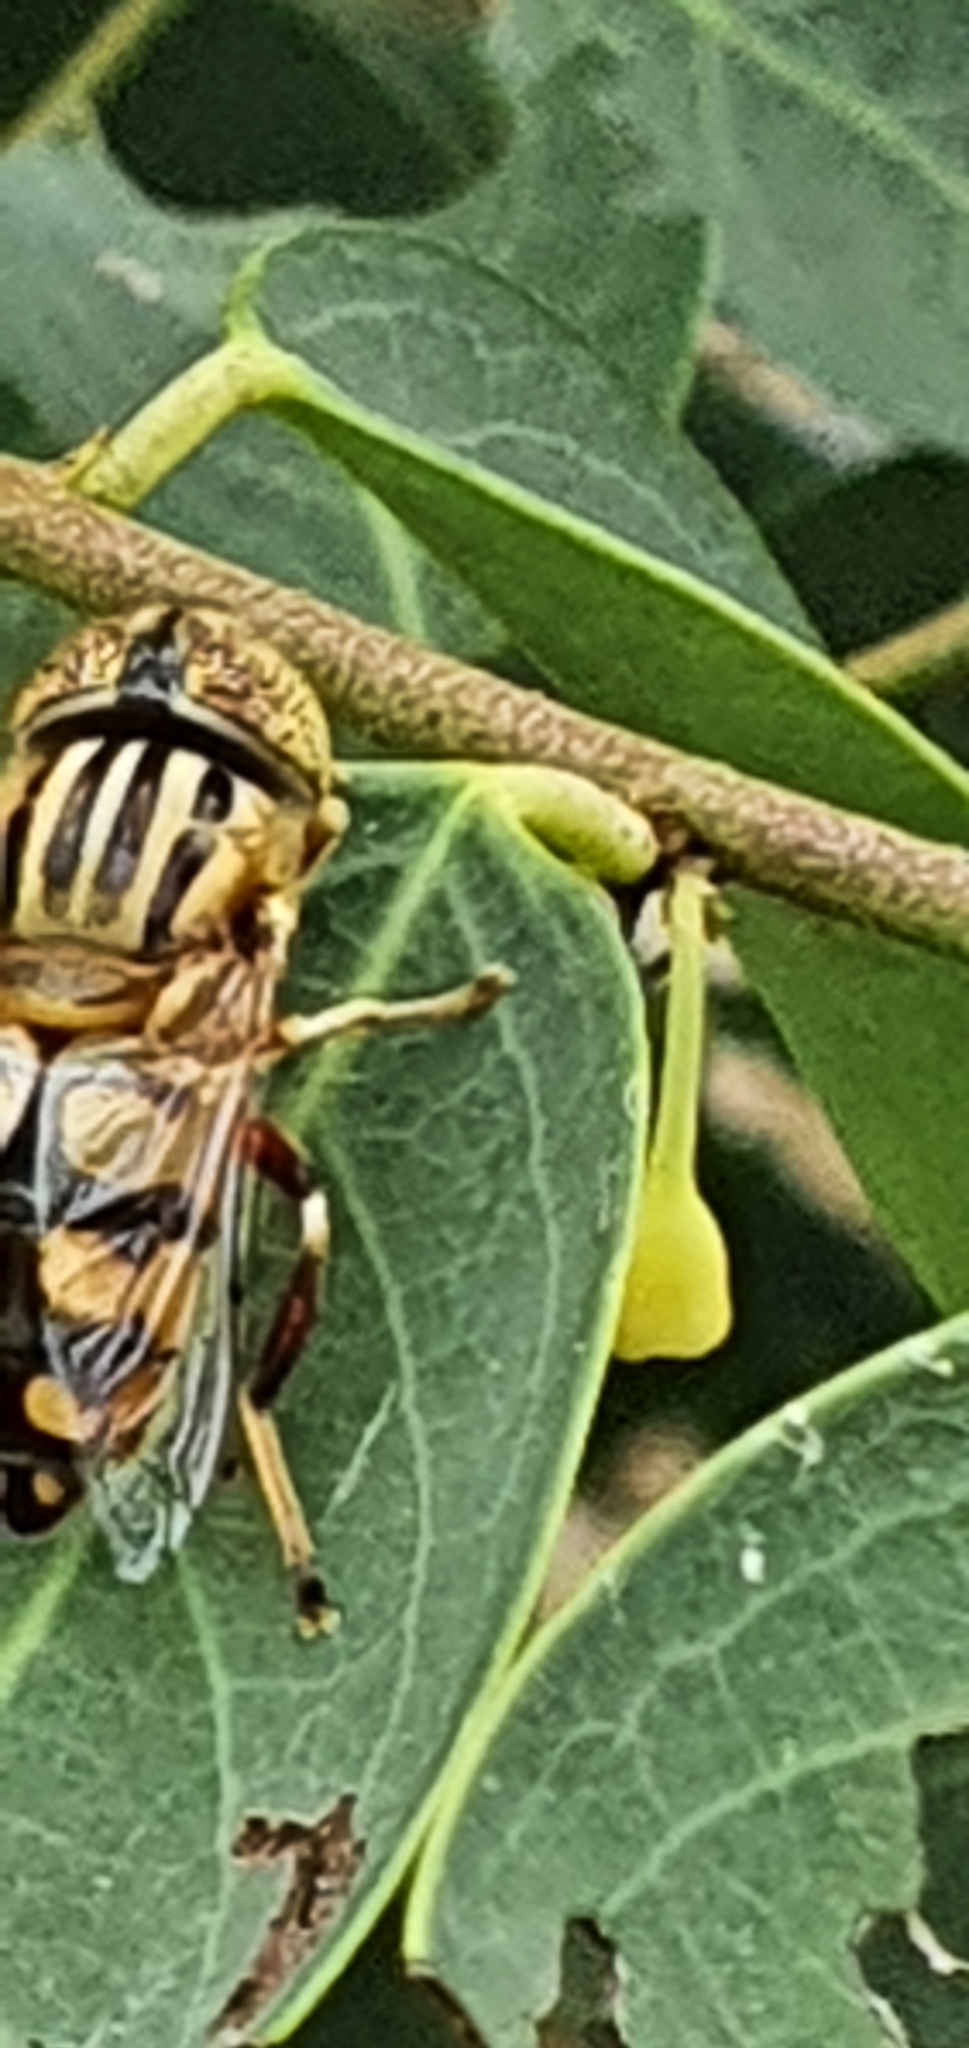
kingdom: Animalia
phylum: Arthropoda
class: Insecta
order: Diptera
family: Syrphidae
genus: Eristalinus
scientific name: Eristalinus punctulatus
